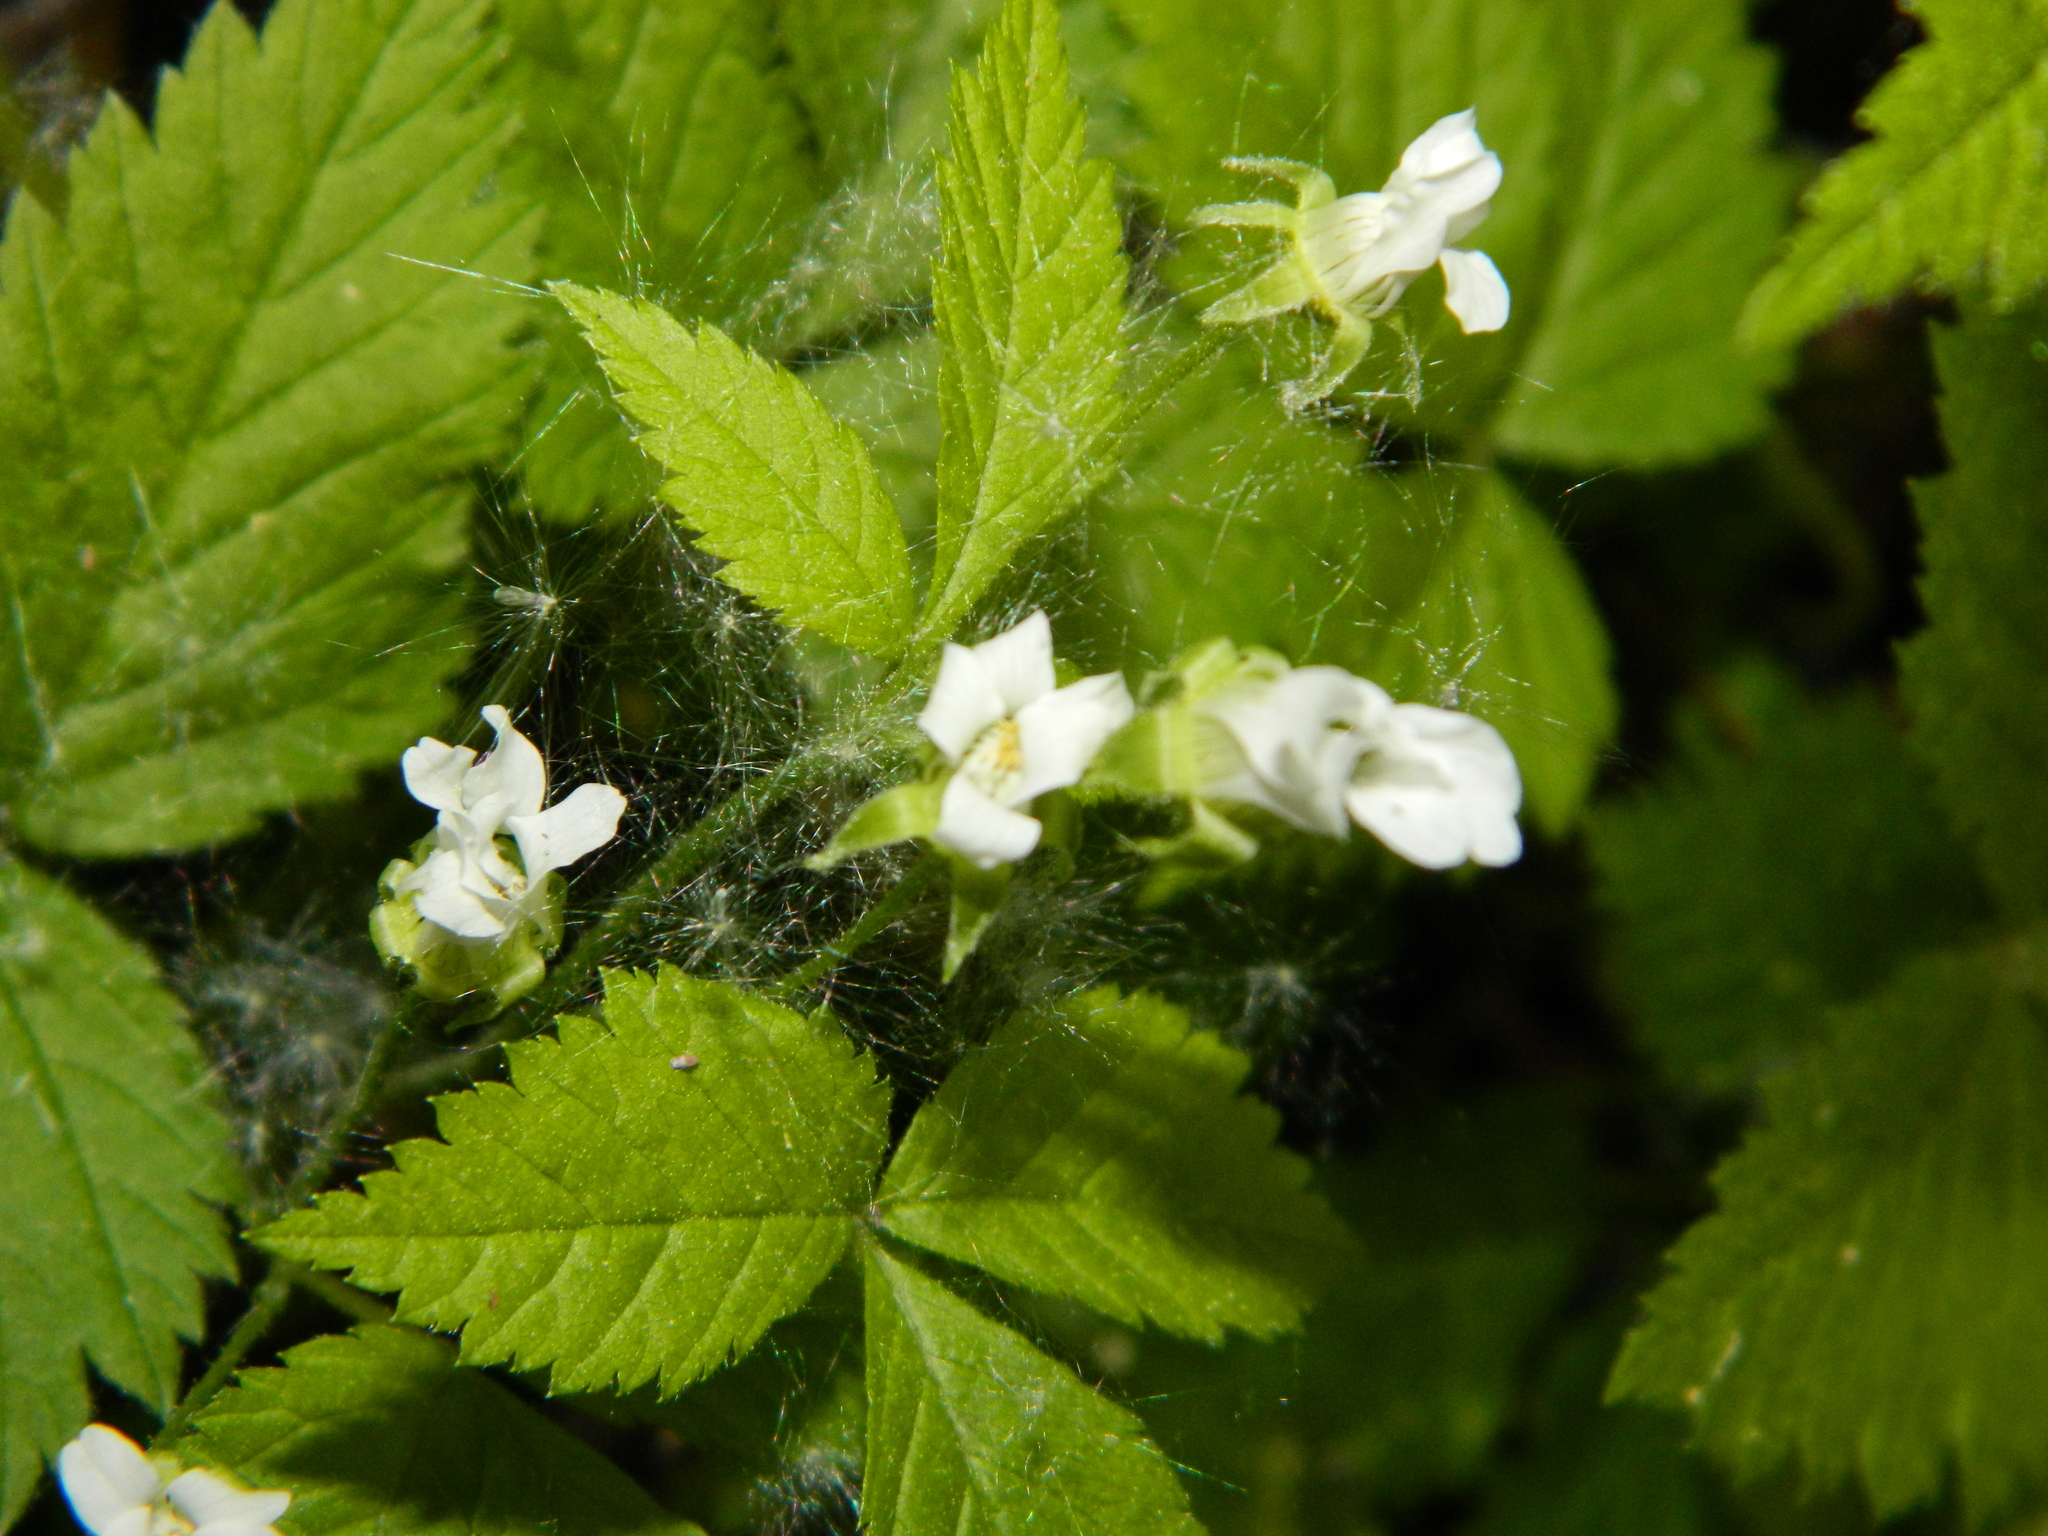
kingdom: Plantae
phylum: Tracheophyta
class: Magnoliopsida
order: Rosales
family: Rosaceae
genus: Rubus
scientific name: Rubus pubescens
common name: Dwarf raspberry
